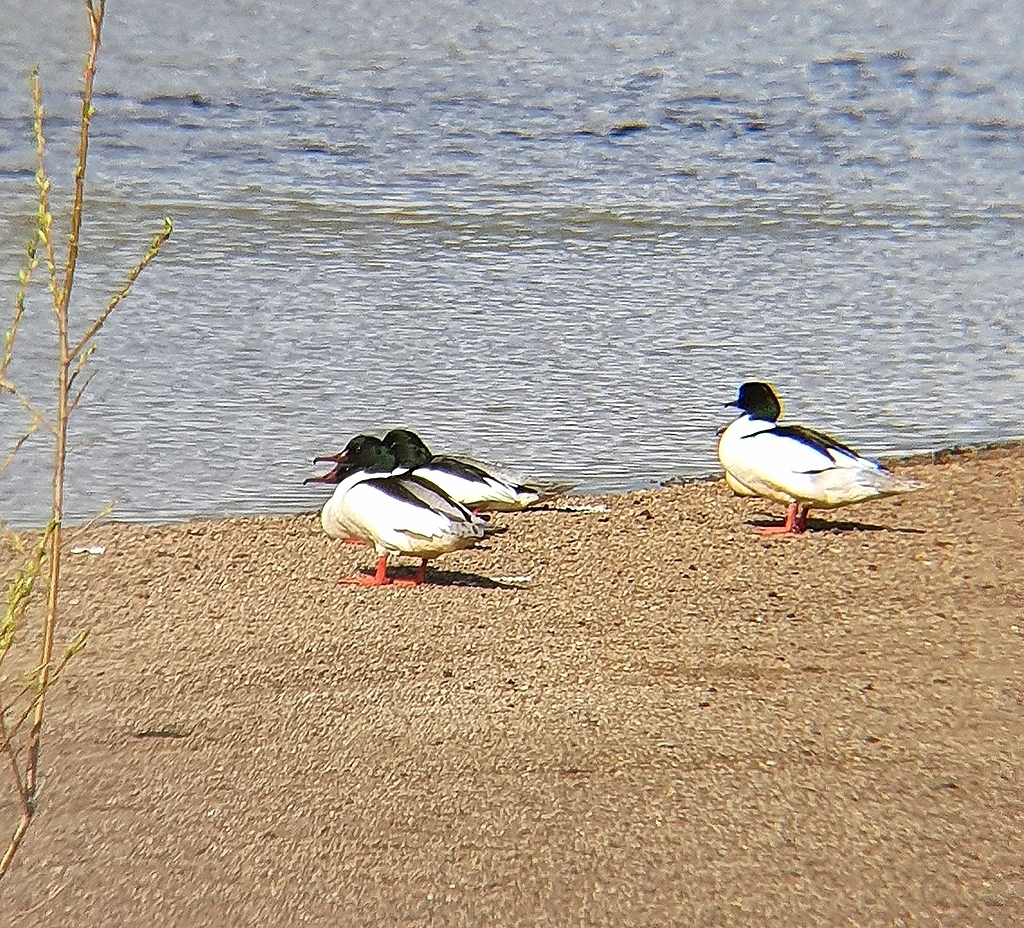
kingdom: Animalia
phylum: Chordata
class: Aves
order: Anseriformes
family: Anatidae
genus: Mergus
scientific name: Mergus merganser
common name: Common merganser
